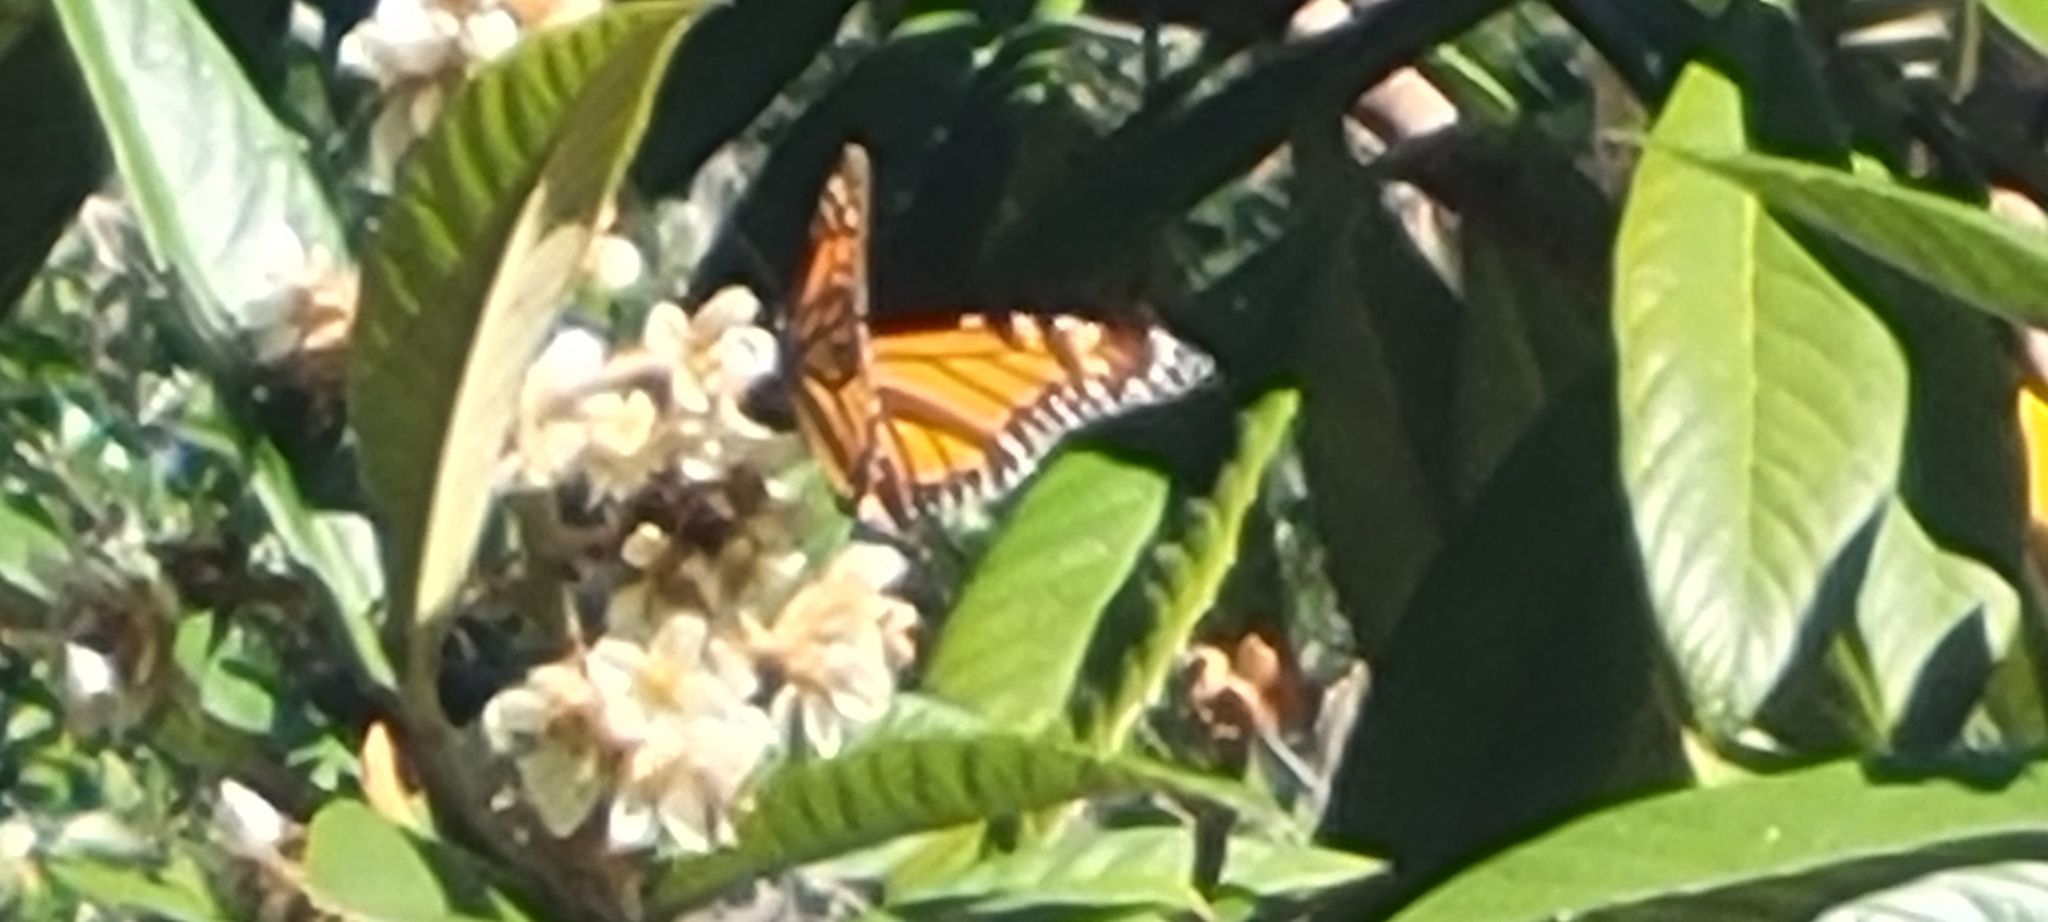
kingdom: Animalia
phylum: Arthropoda
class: Insecta
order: Lepidoptera
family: Nymphalidae
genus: Danaus
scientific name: Danaus plexippus
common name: Monarch
